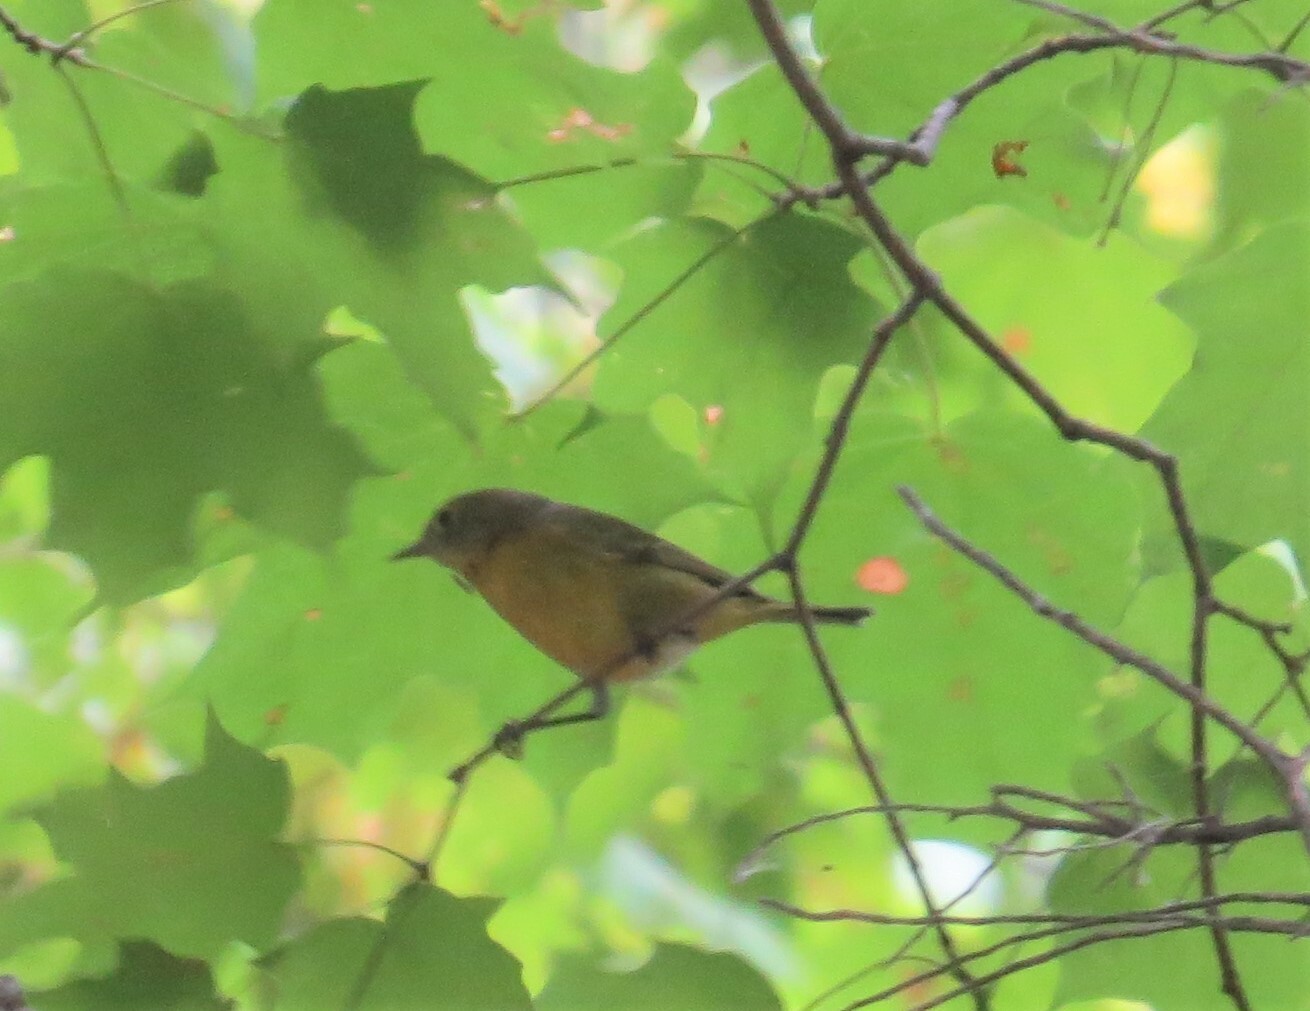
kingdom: Animalia
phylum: Chordata
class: Aves
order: Passeriformes
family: Parulidae
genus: Leiothlypis
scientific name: Leiothlypis ruficapilla
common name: Nashville warbler
